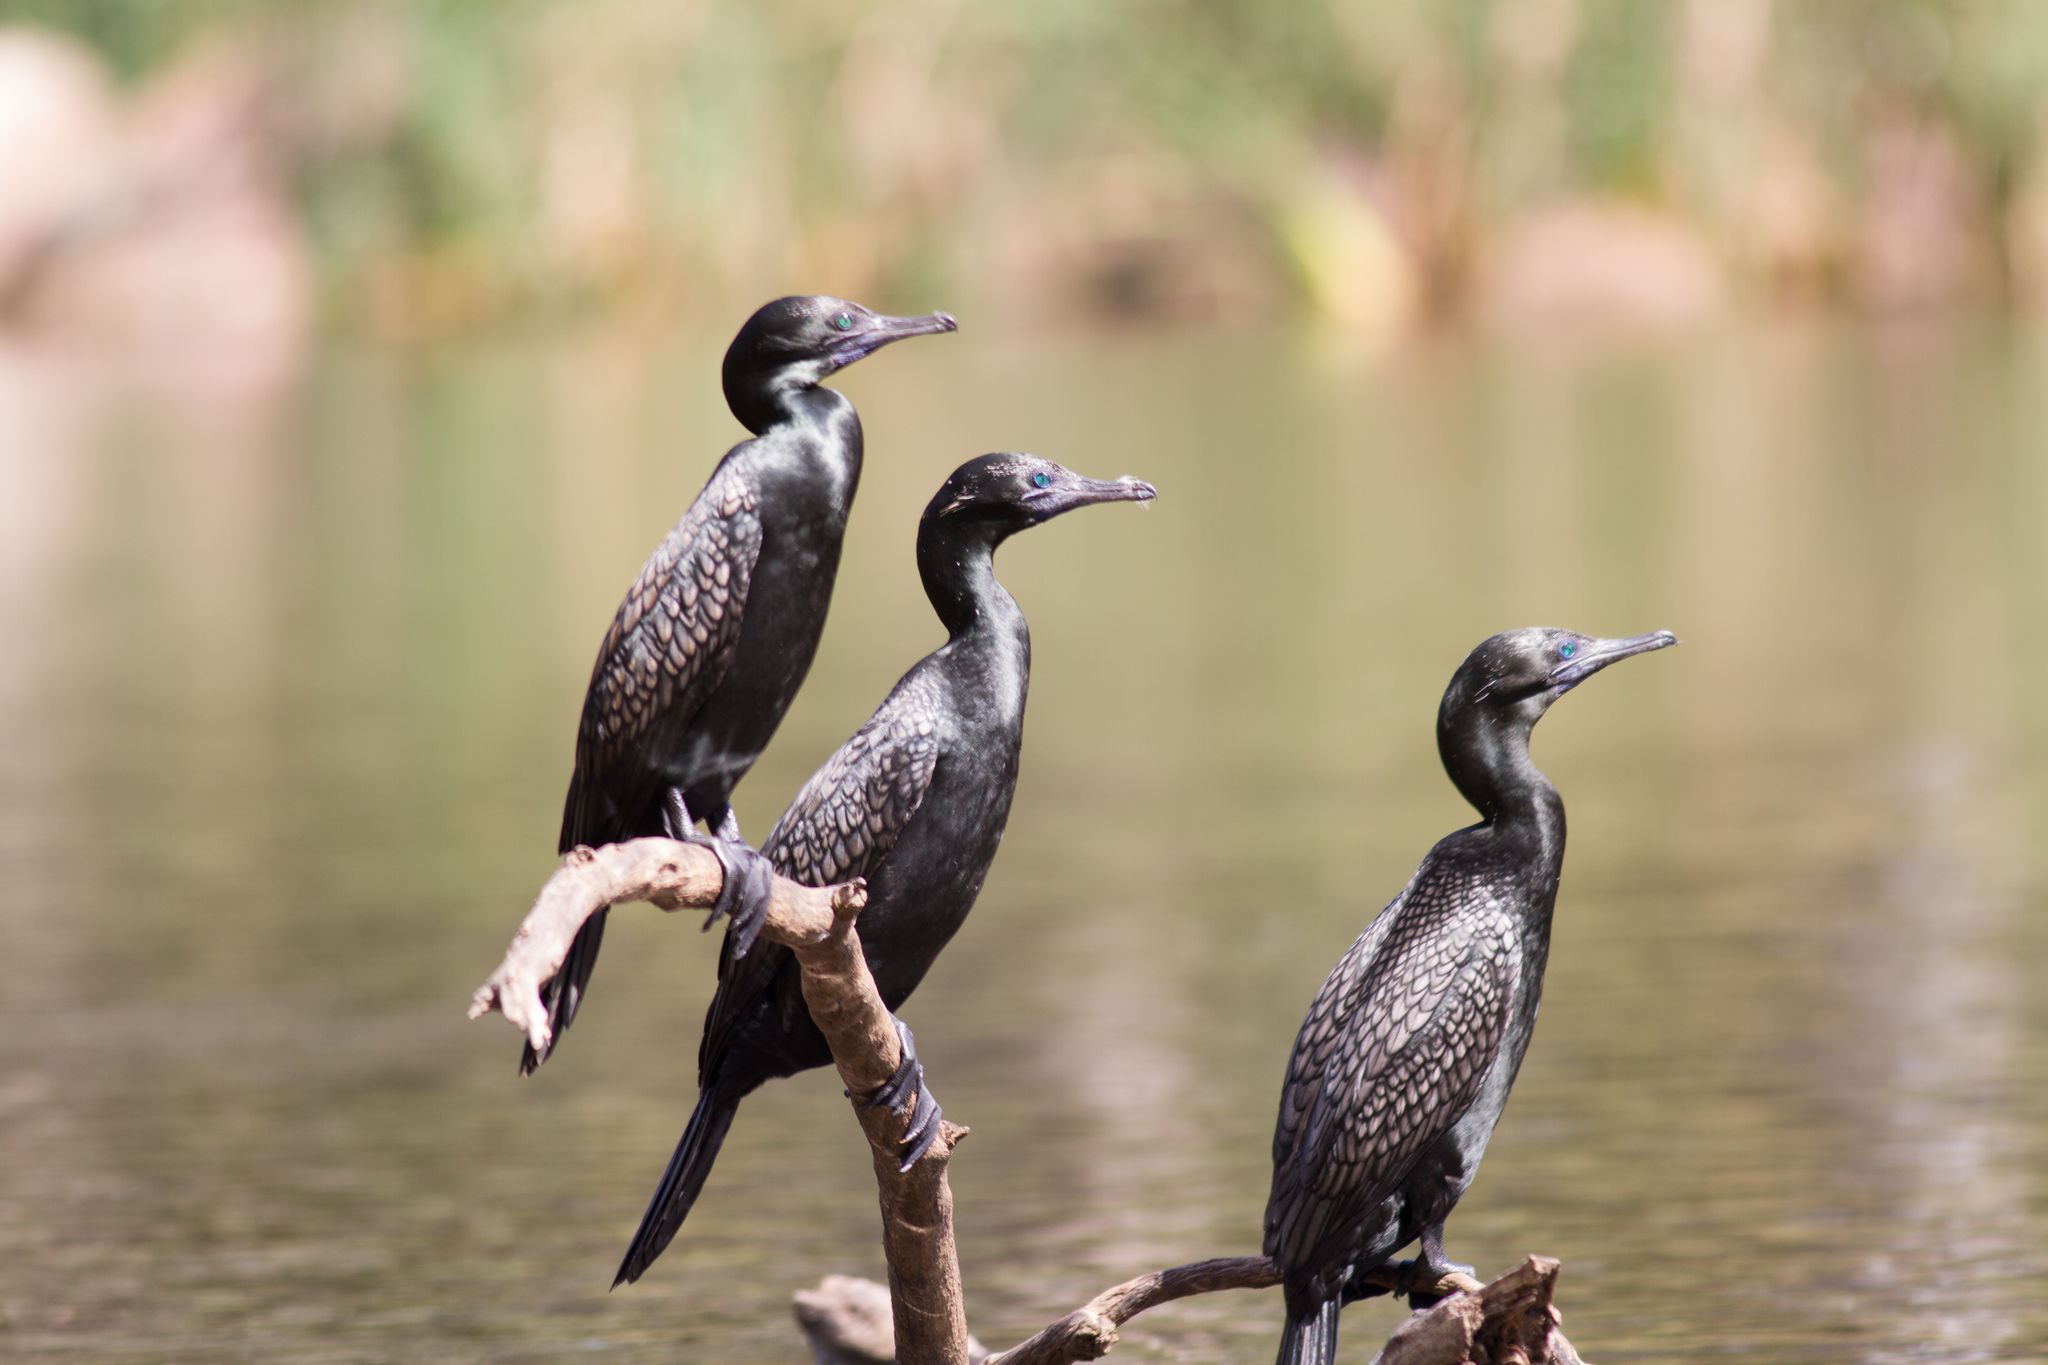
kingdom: Animalia
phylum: Chordata
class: Aves
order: Suliformes
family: Phalacrocoracidae
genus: Phalacrocorax
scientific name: Phalacrocorax sulcirostris
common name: Little black cormorant
